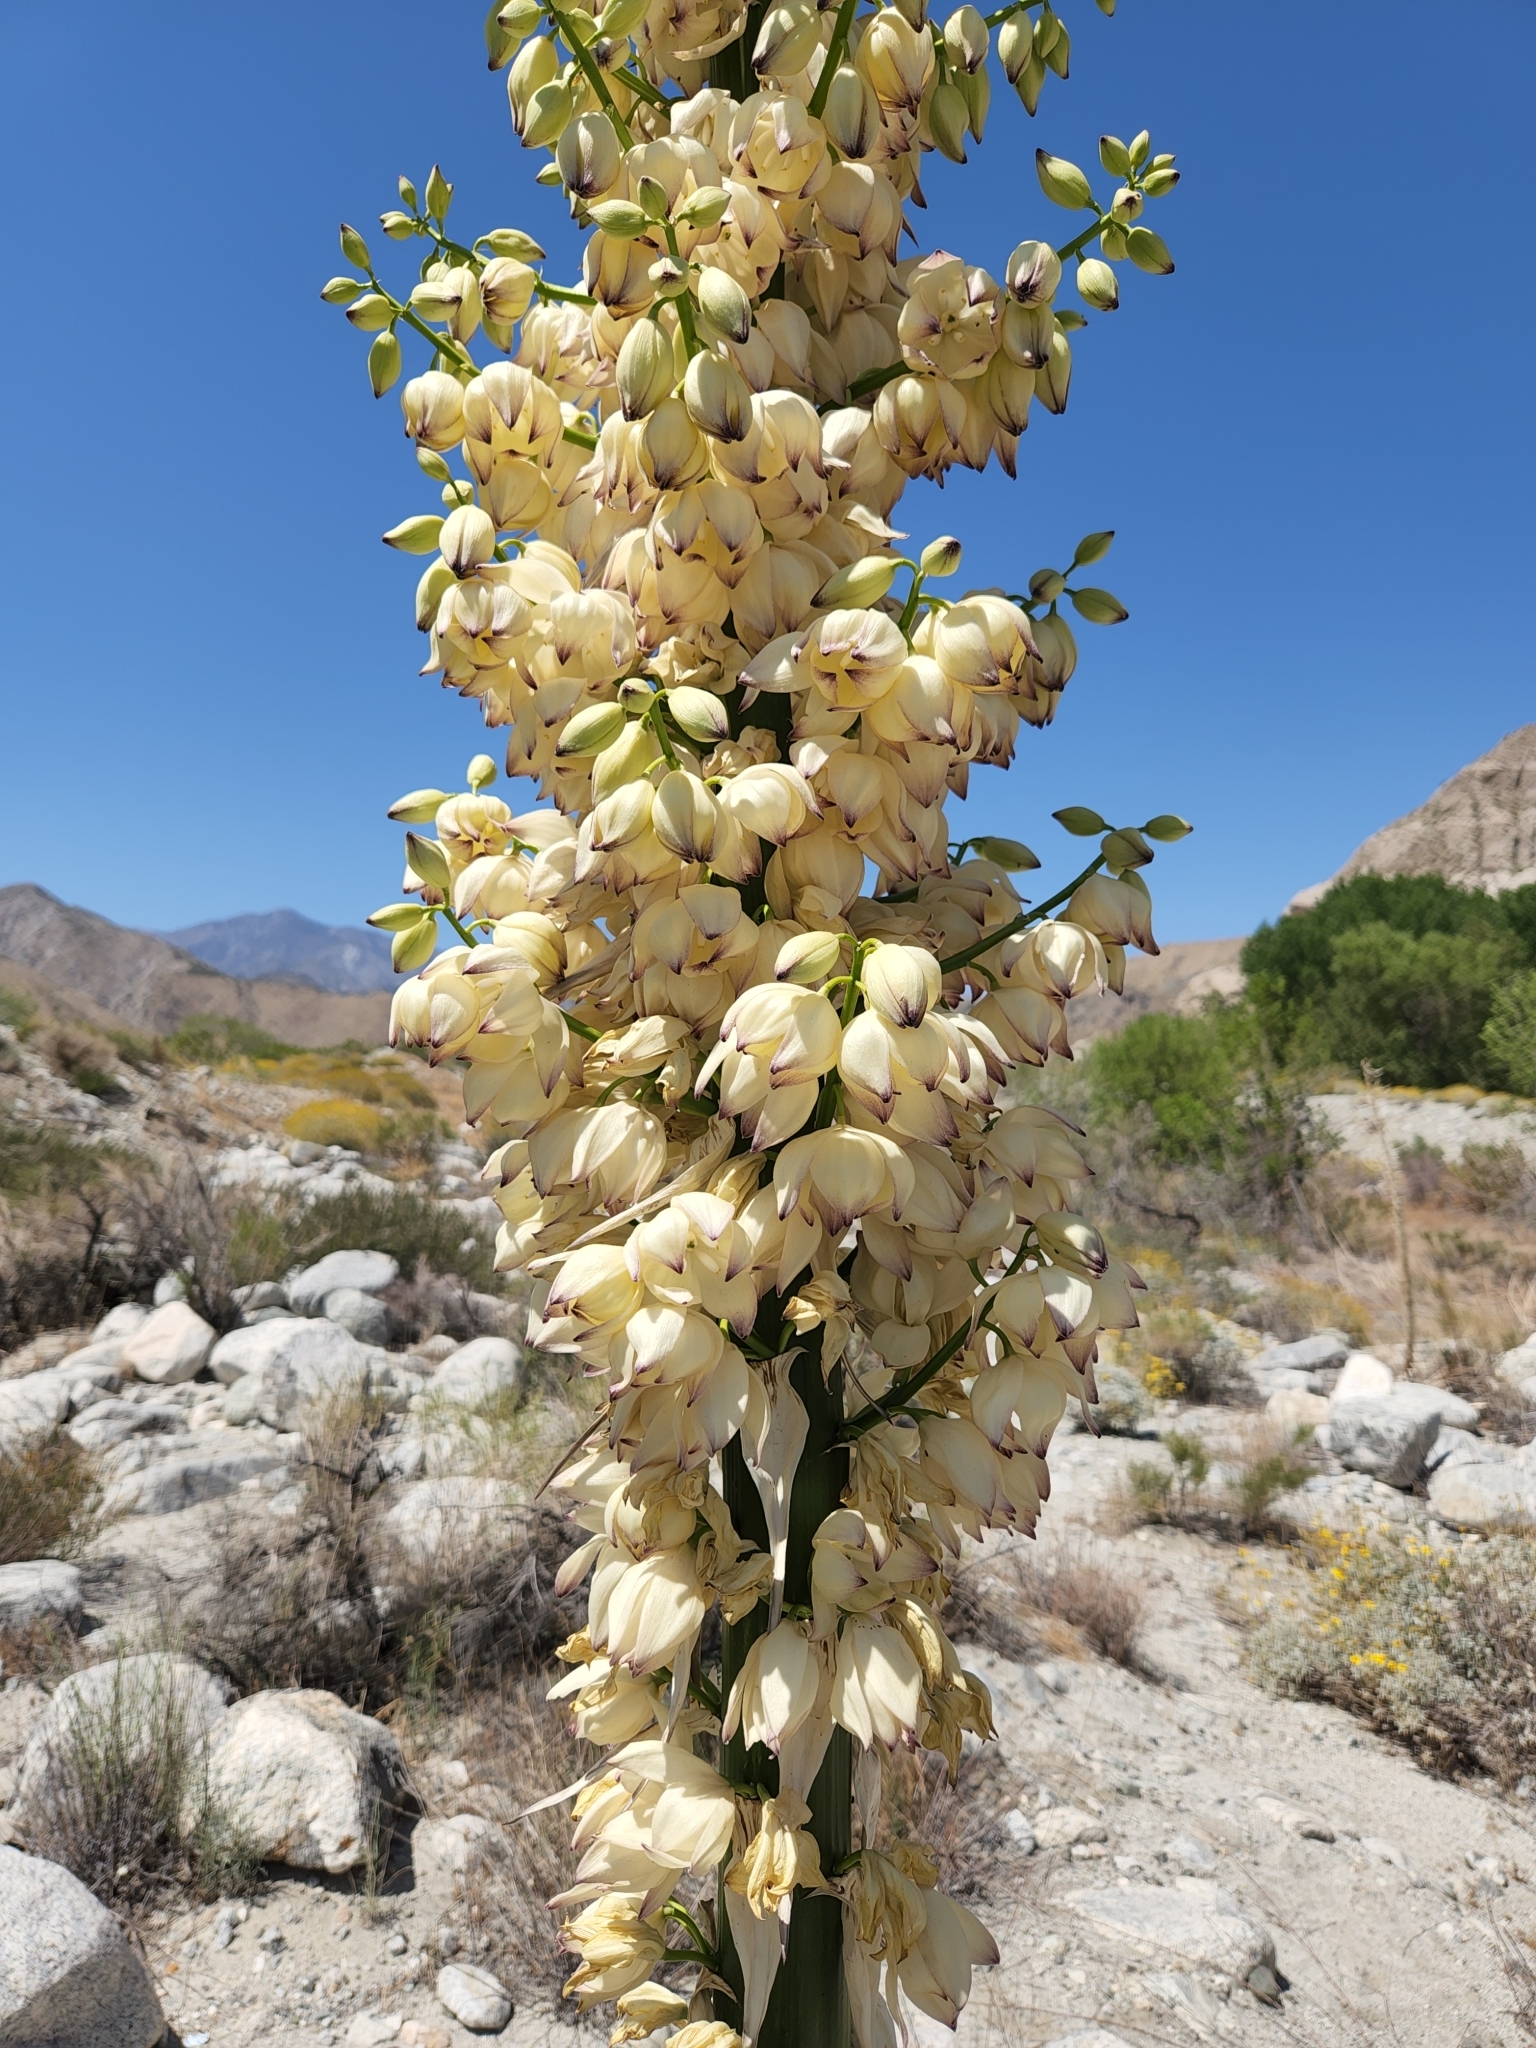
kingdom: Plantae
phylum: Tracheophyta
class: Liliopsida
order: Asparagales
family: Asparagaceae
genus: Hesperoyucca
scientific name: Hesperoyucca whipplei
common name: Our lord's-candle
